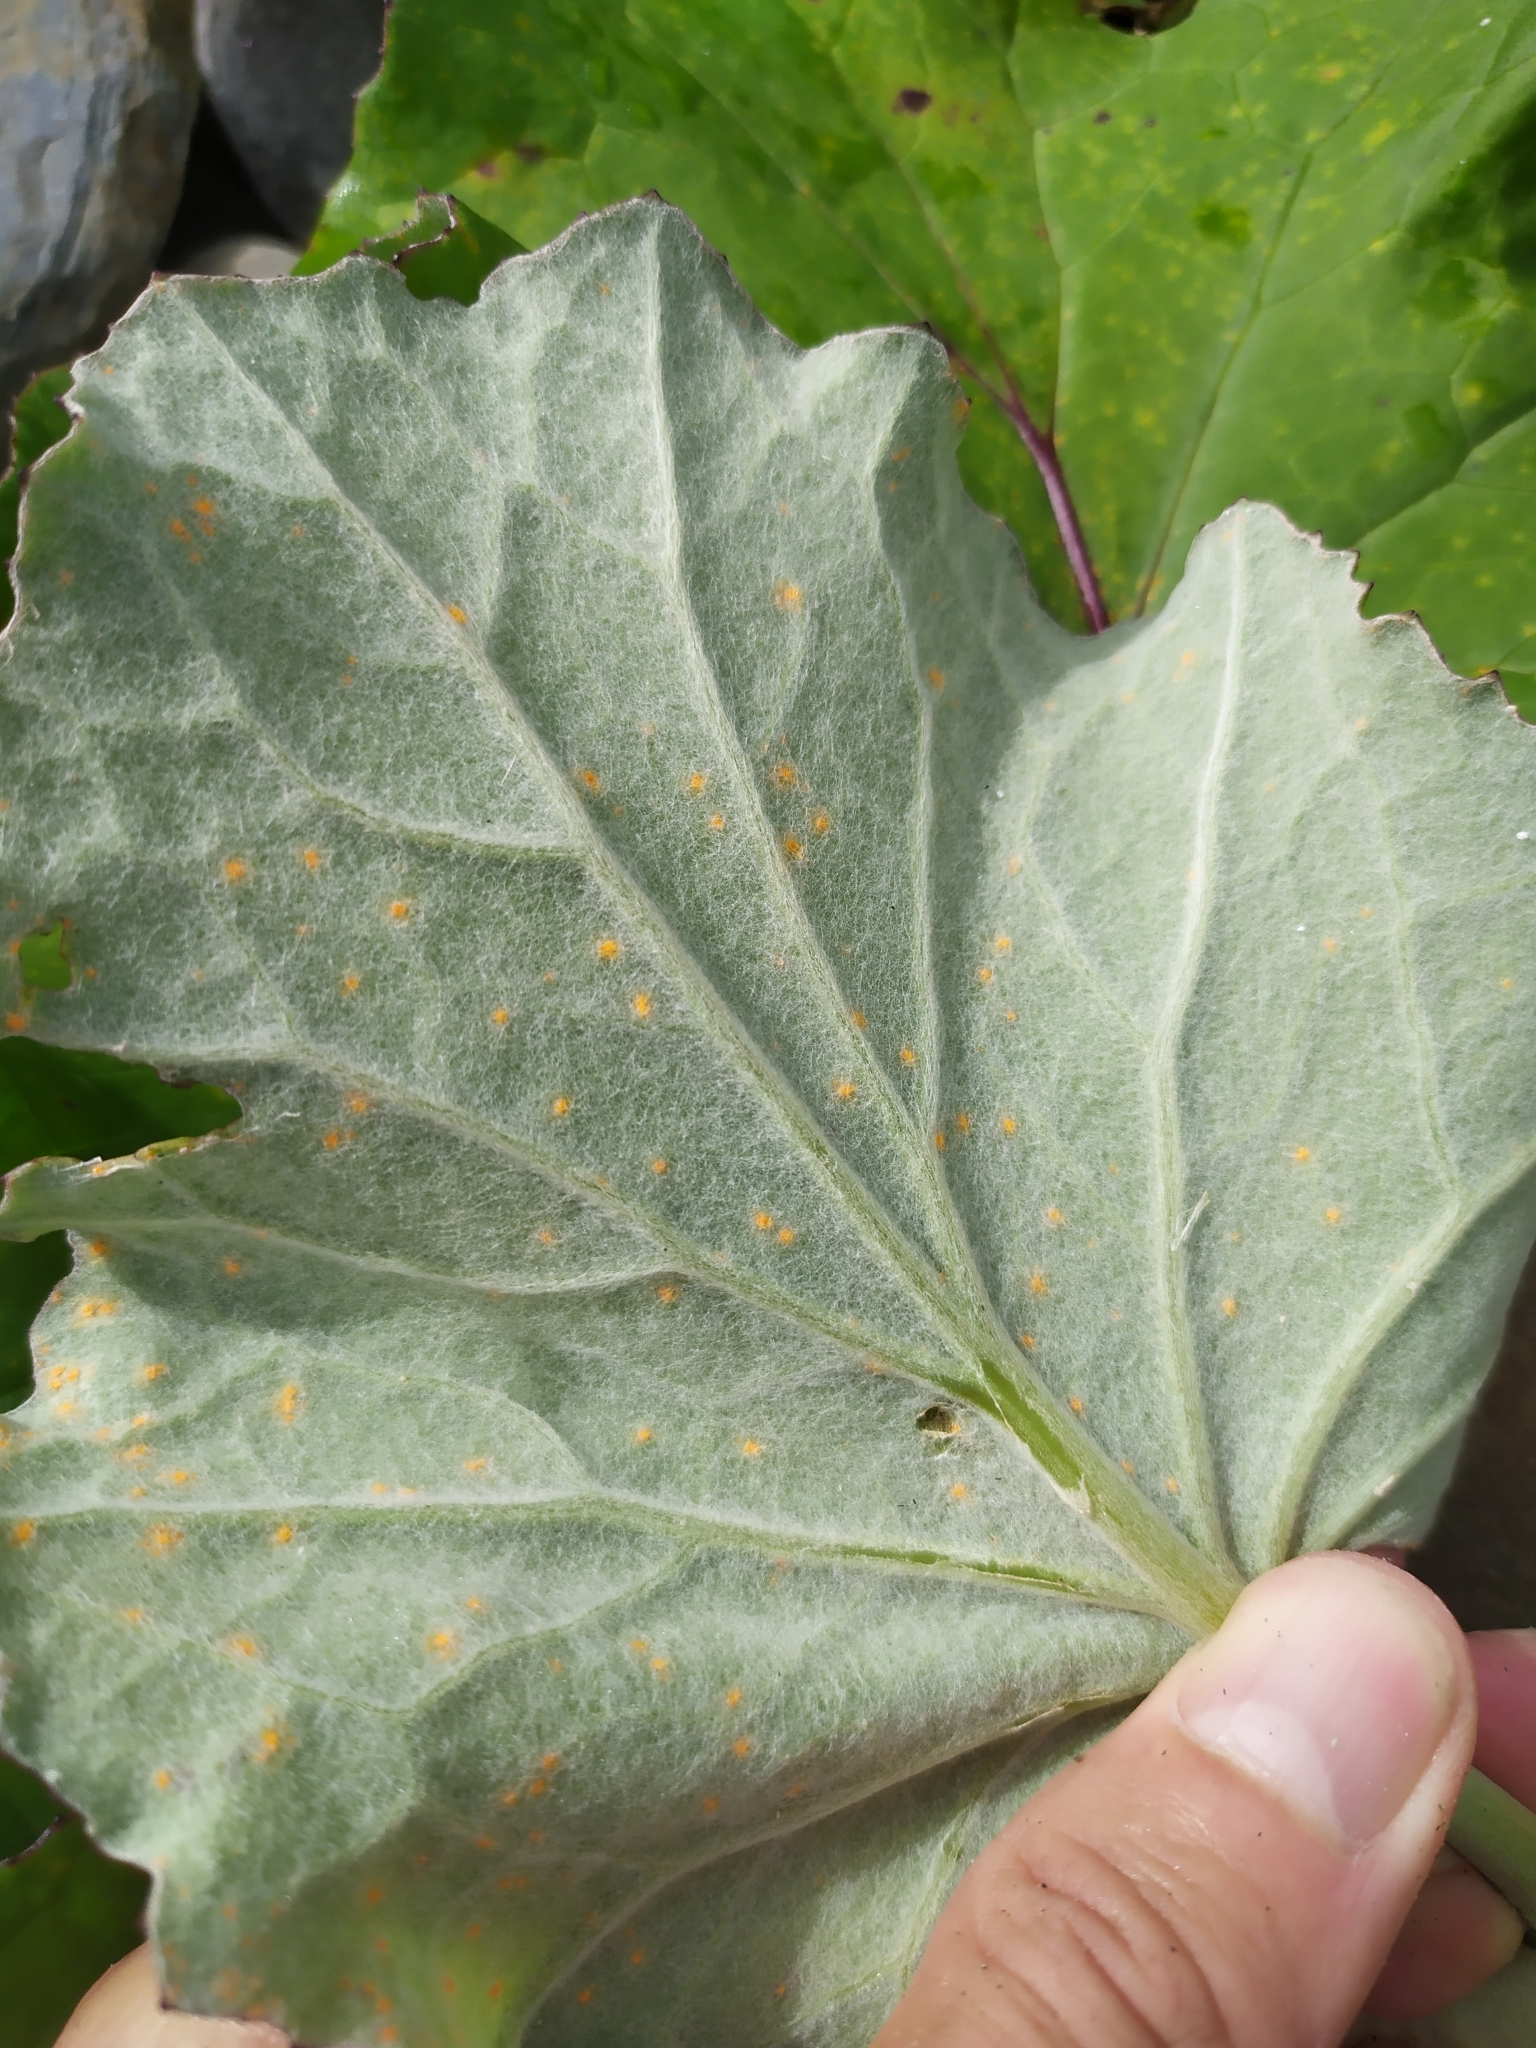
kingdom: Fungi
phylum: Basidiomycota
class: Pucciniomycetes
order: Pucciniales
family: Coleosporiaceae
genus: Coleosporium
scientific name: Coleosporium tussilaginis
